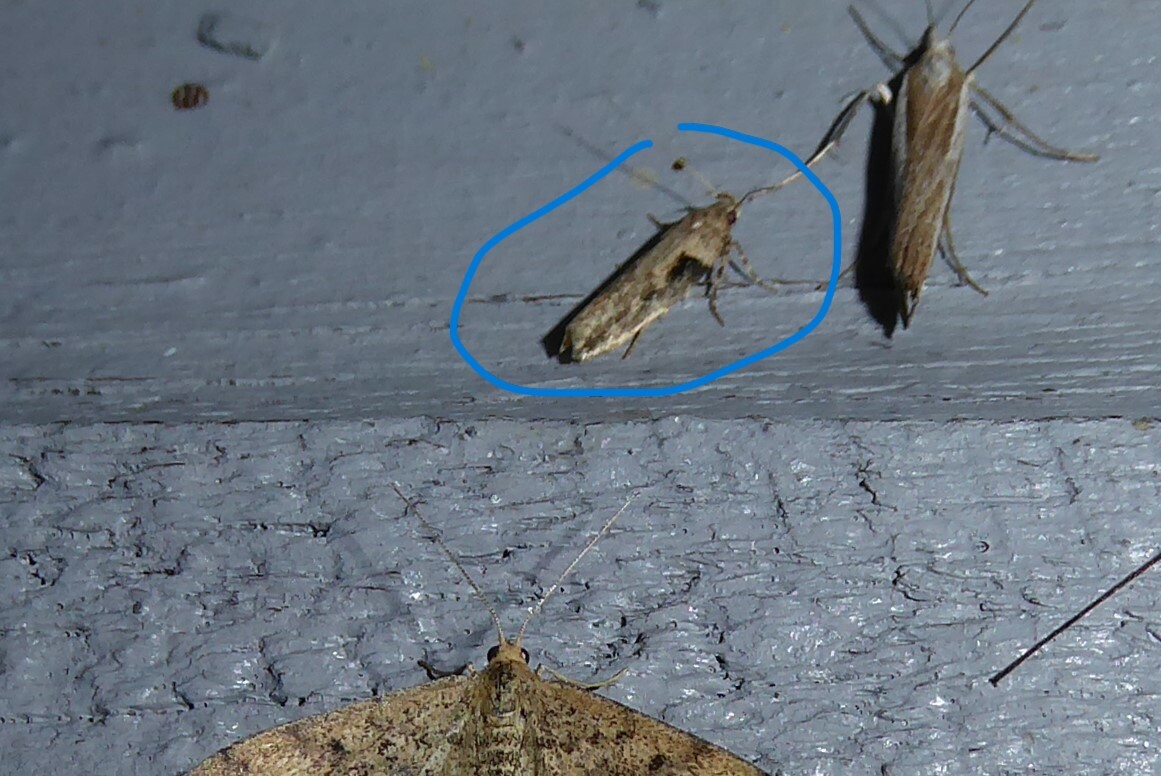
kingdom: Animalia
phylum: Arthropoda
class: Insecta
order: Lepidoptera
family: Gelechiidae
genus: Symmetrischema
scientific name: Symmetrischema tangolias
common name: Moth
